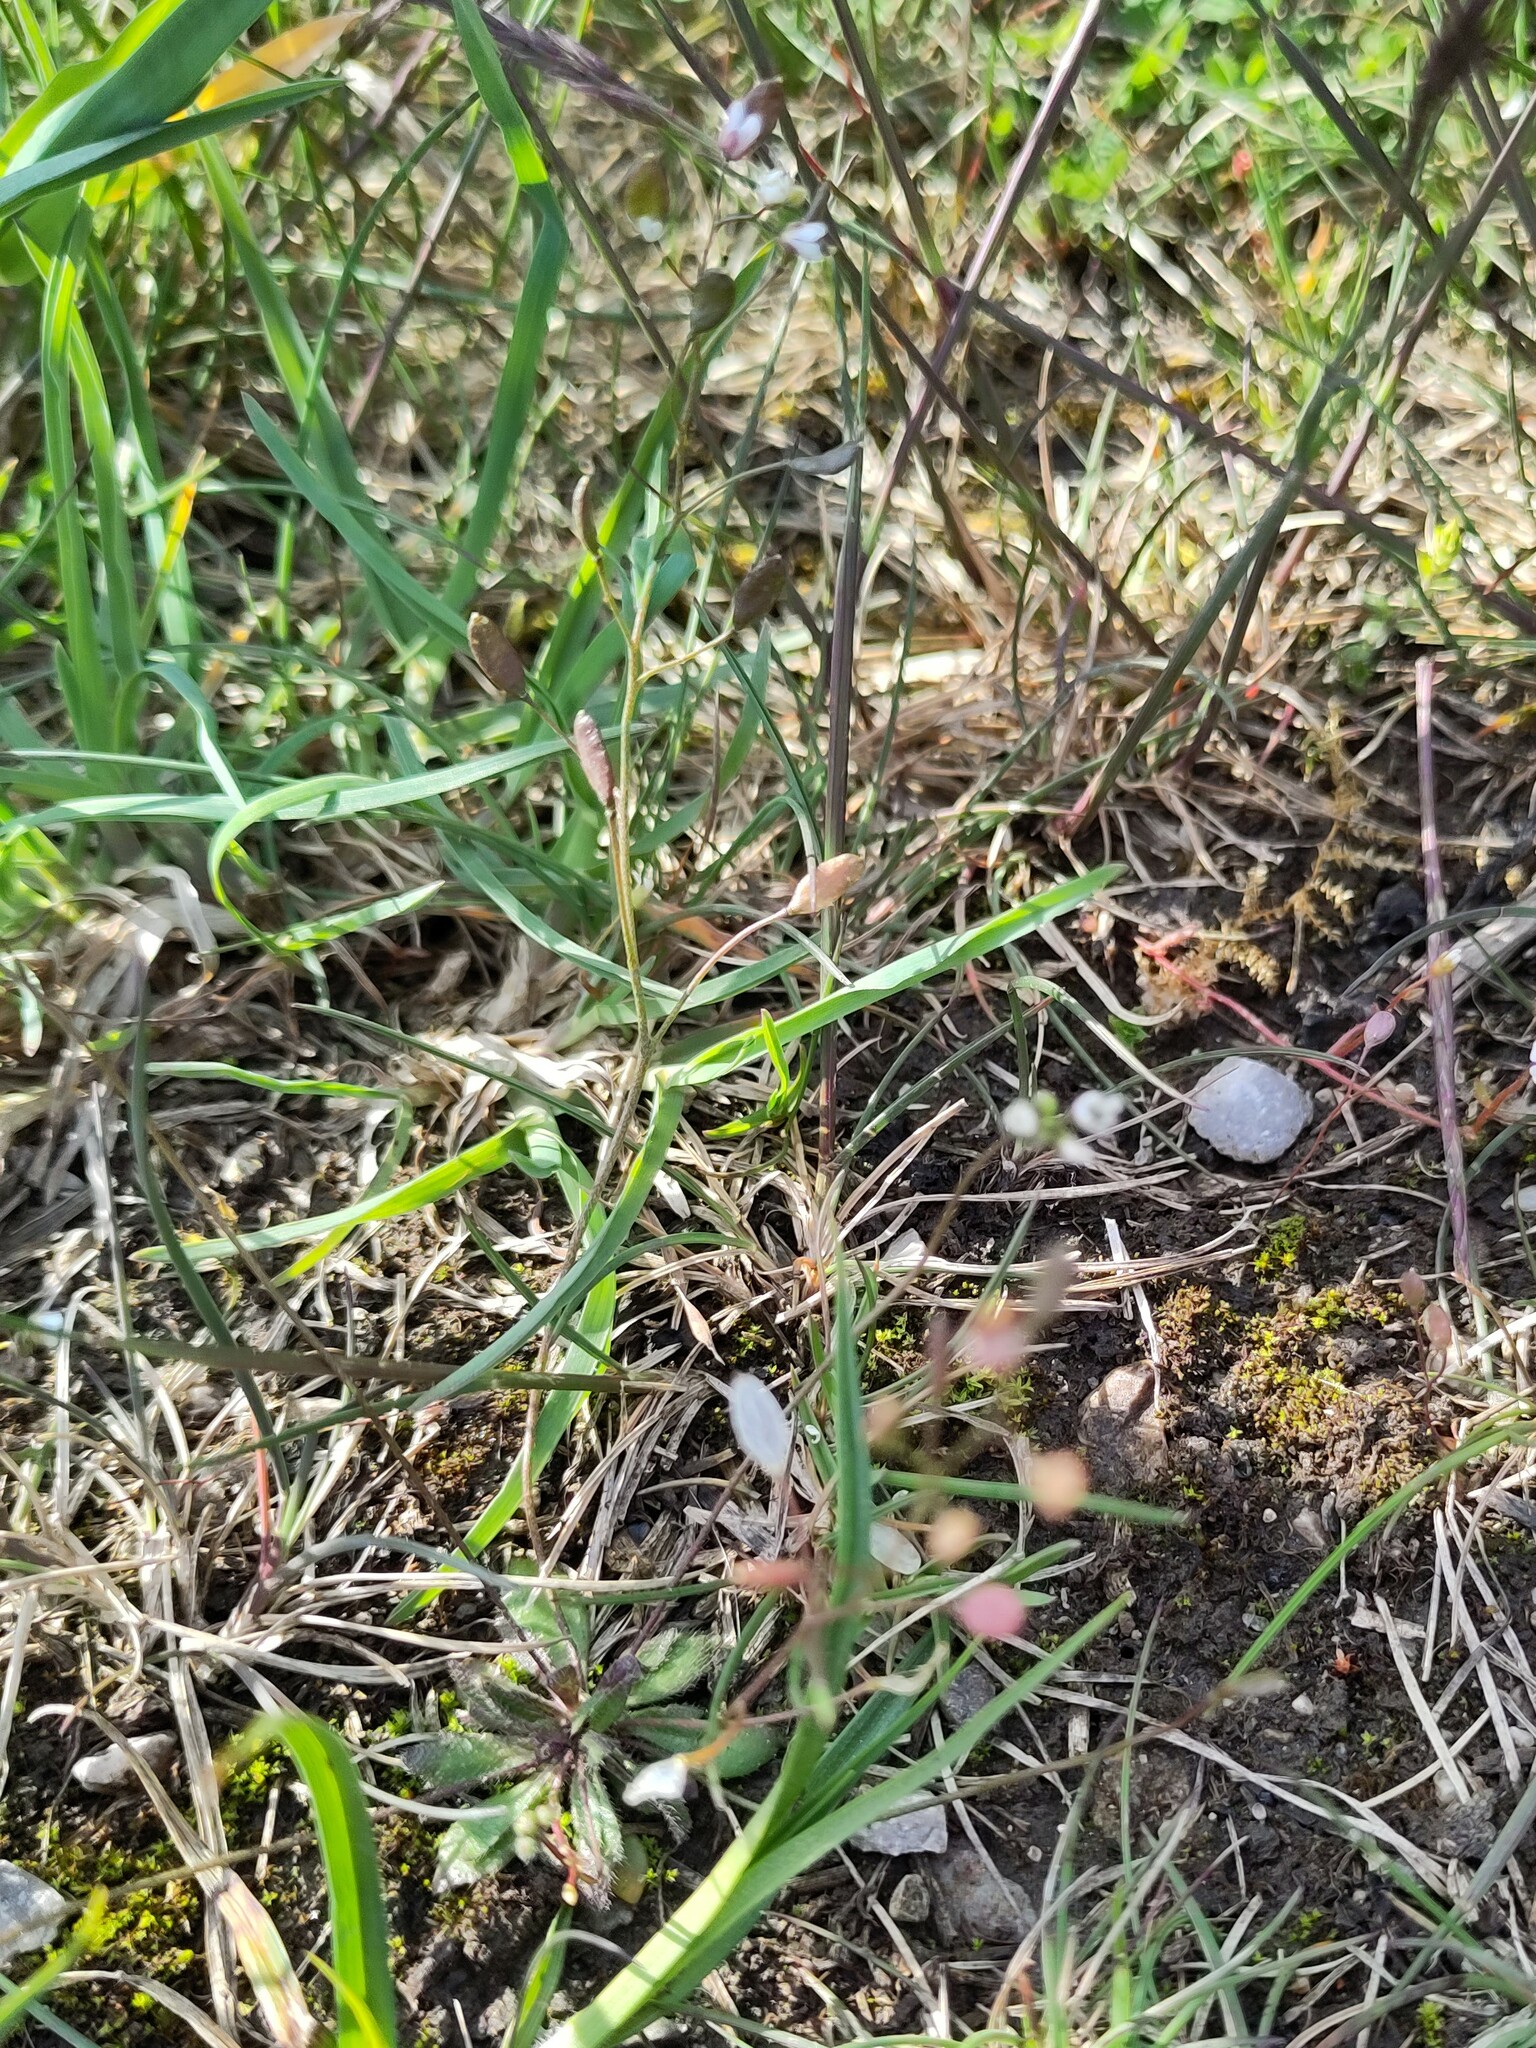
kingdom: Plantae
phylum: Tracheophyta
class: Magnoliopsida
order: Brassicales
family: Brassicaceae
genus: Draba
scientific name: Draba verna
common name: Spring draba
